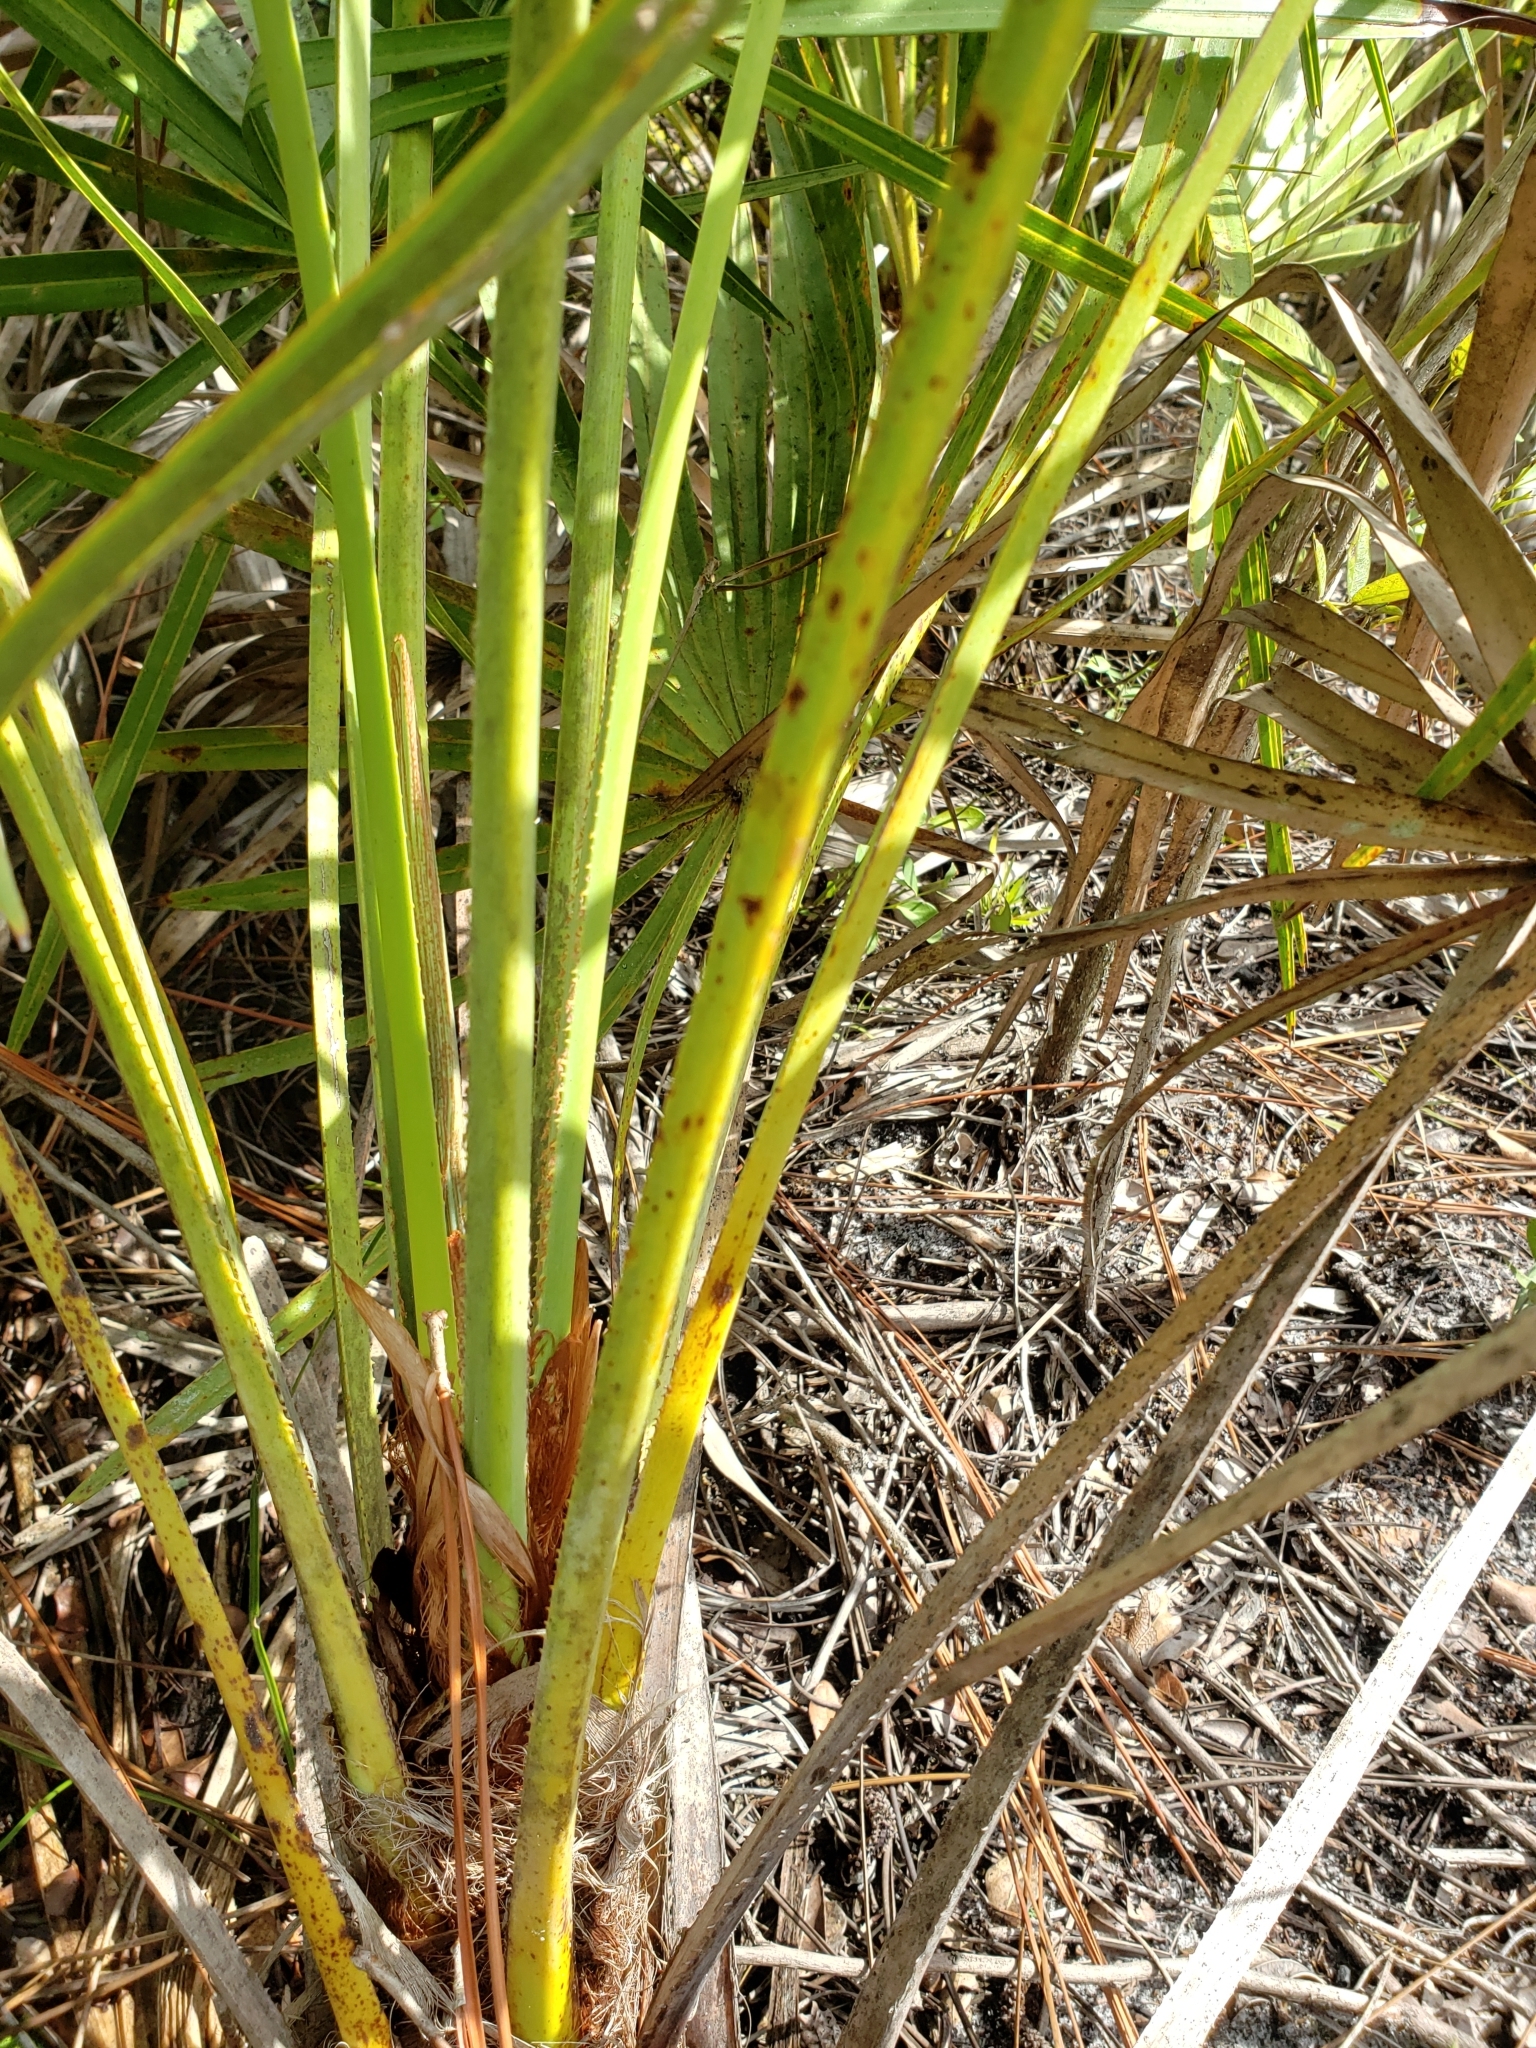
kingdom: Plantae
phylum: Tracheophyta
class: Liliopsida
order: Arecales
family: Arecaceae
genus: Serenoa
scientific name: Serenoa repens
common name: Saw-palmetto
